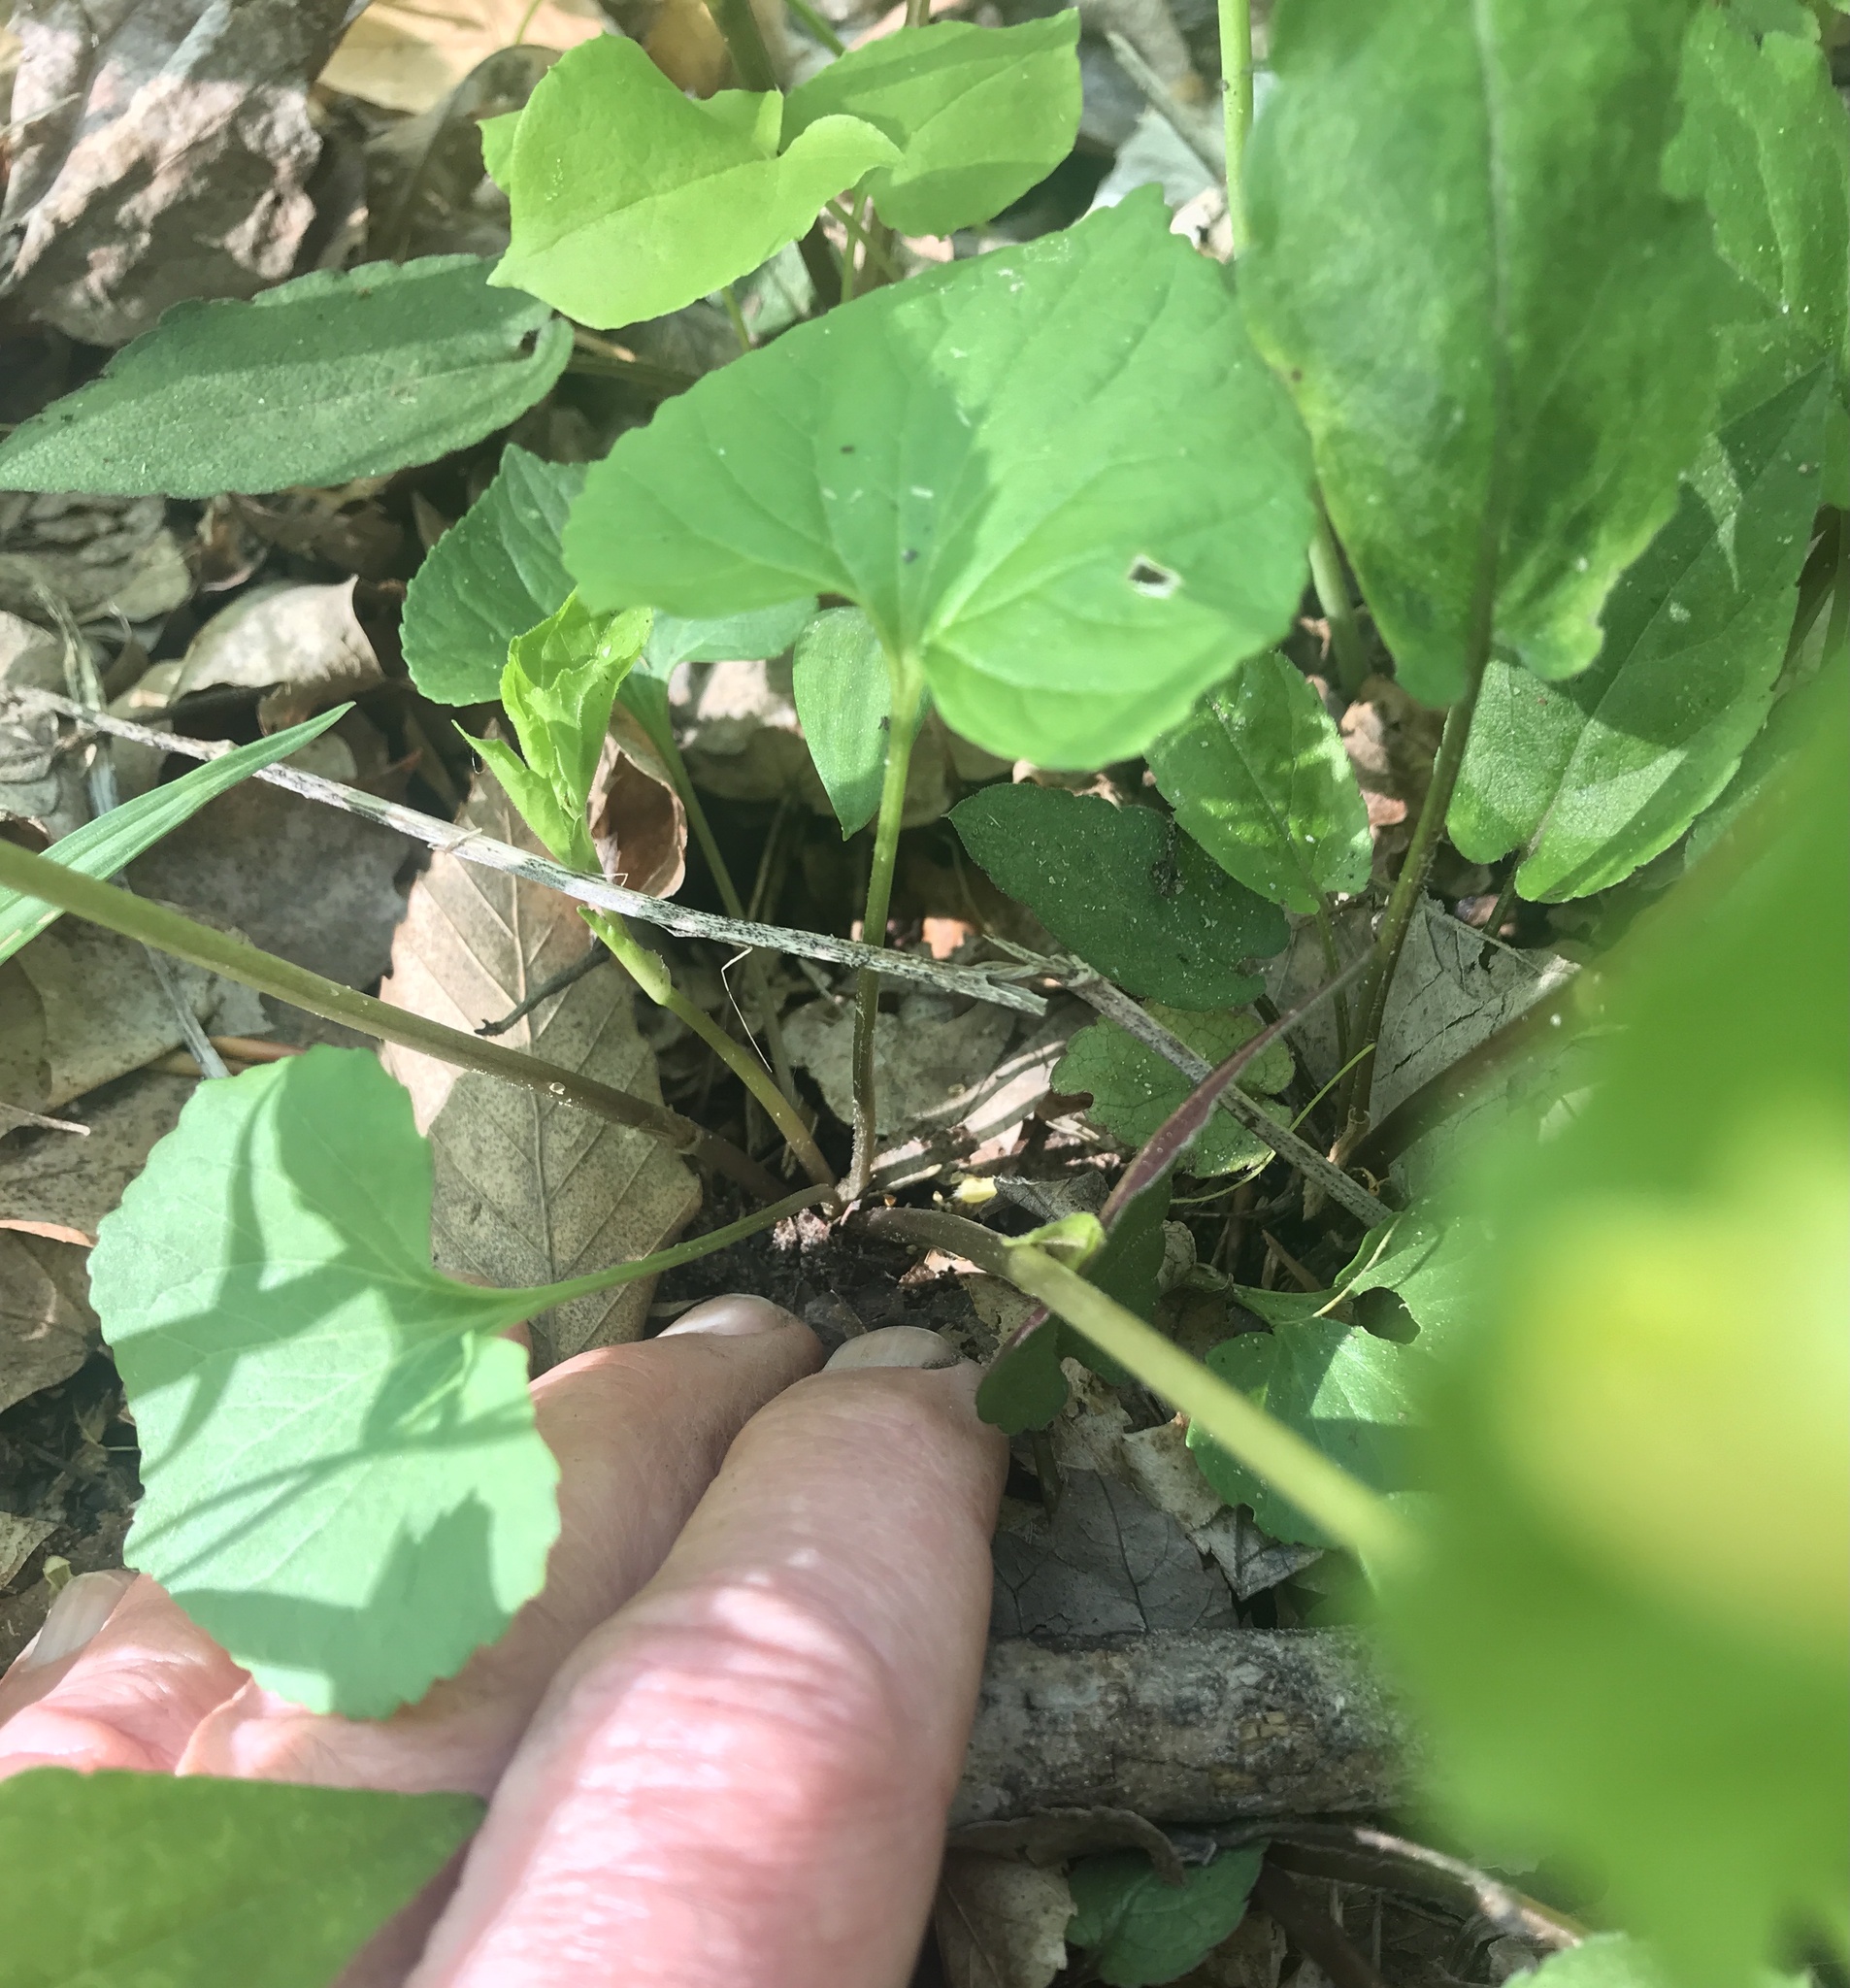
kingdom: Plantae
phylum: Tracheophyta
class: Magnoliopsida
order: Malpighiales
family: Violaceae
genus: Viola
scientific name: Viola eriocarpa
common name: Smooth yellow violet
